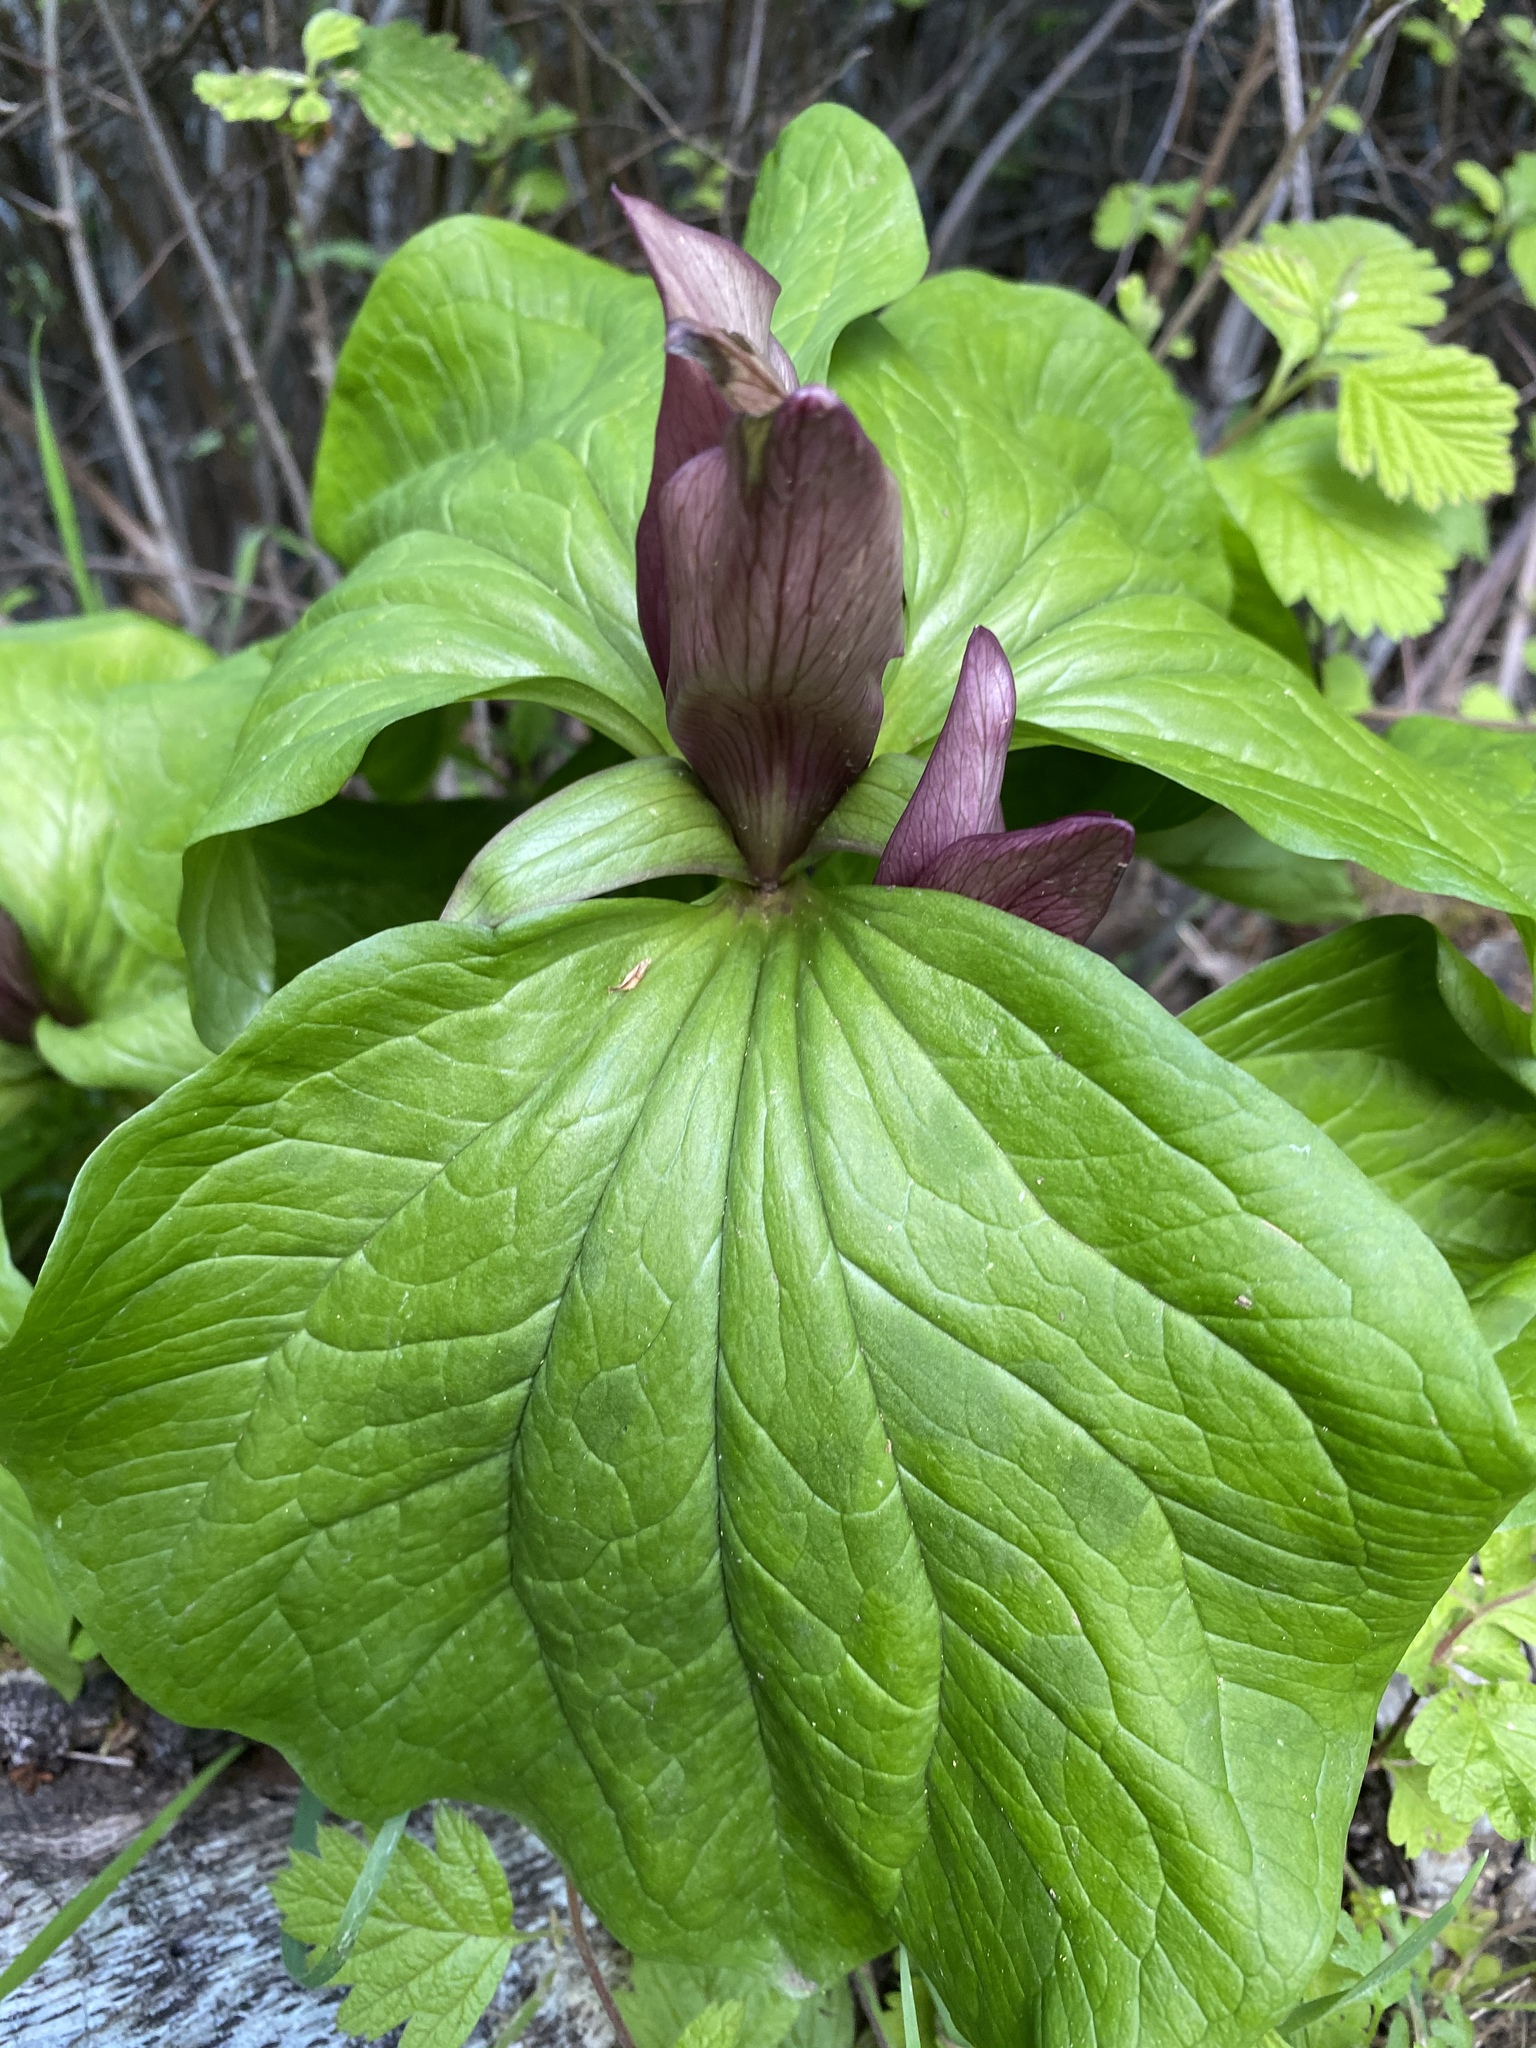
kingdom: Plantae
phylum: Tracheophyta
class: Liliopsida
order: Liliales
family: Melanthiaceae
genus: Trillium
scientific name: Trillium chloropetalum
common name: Giant trillium
